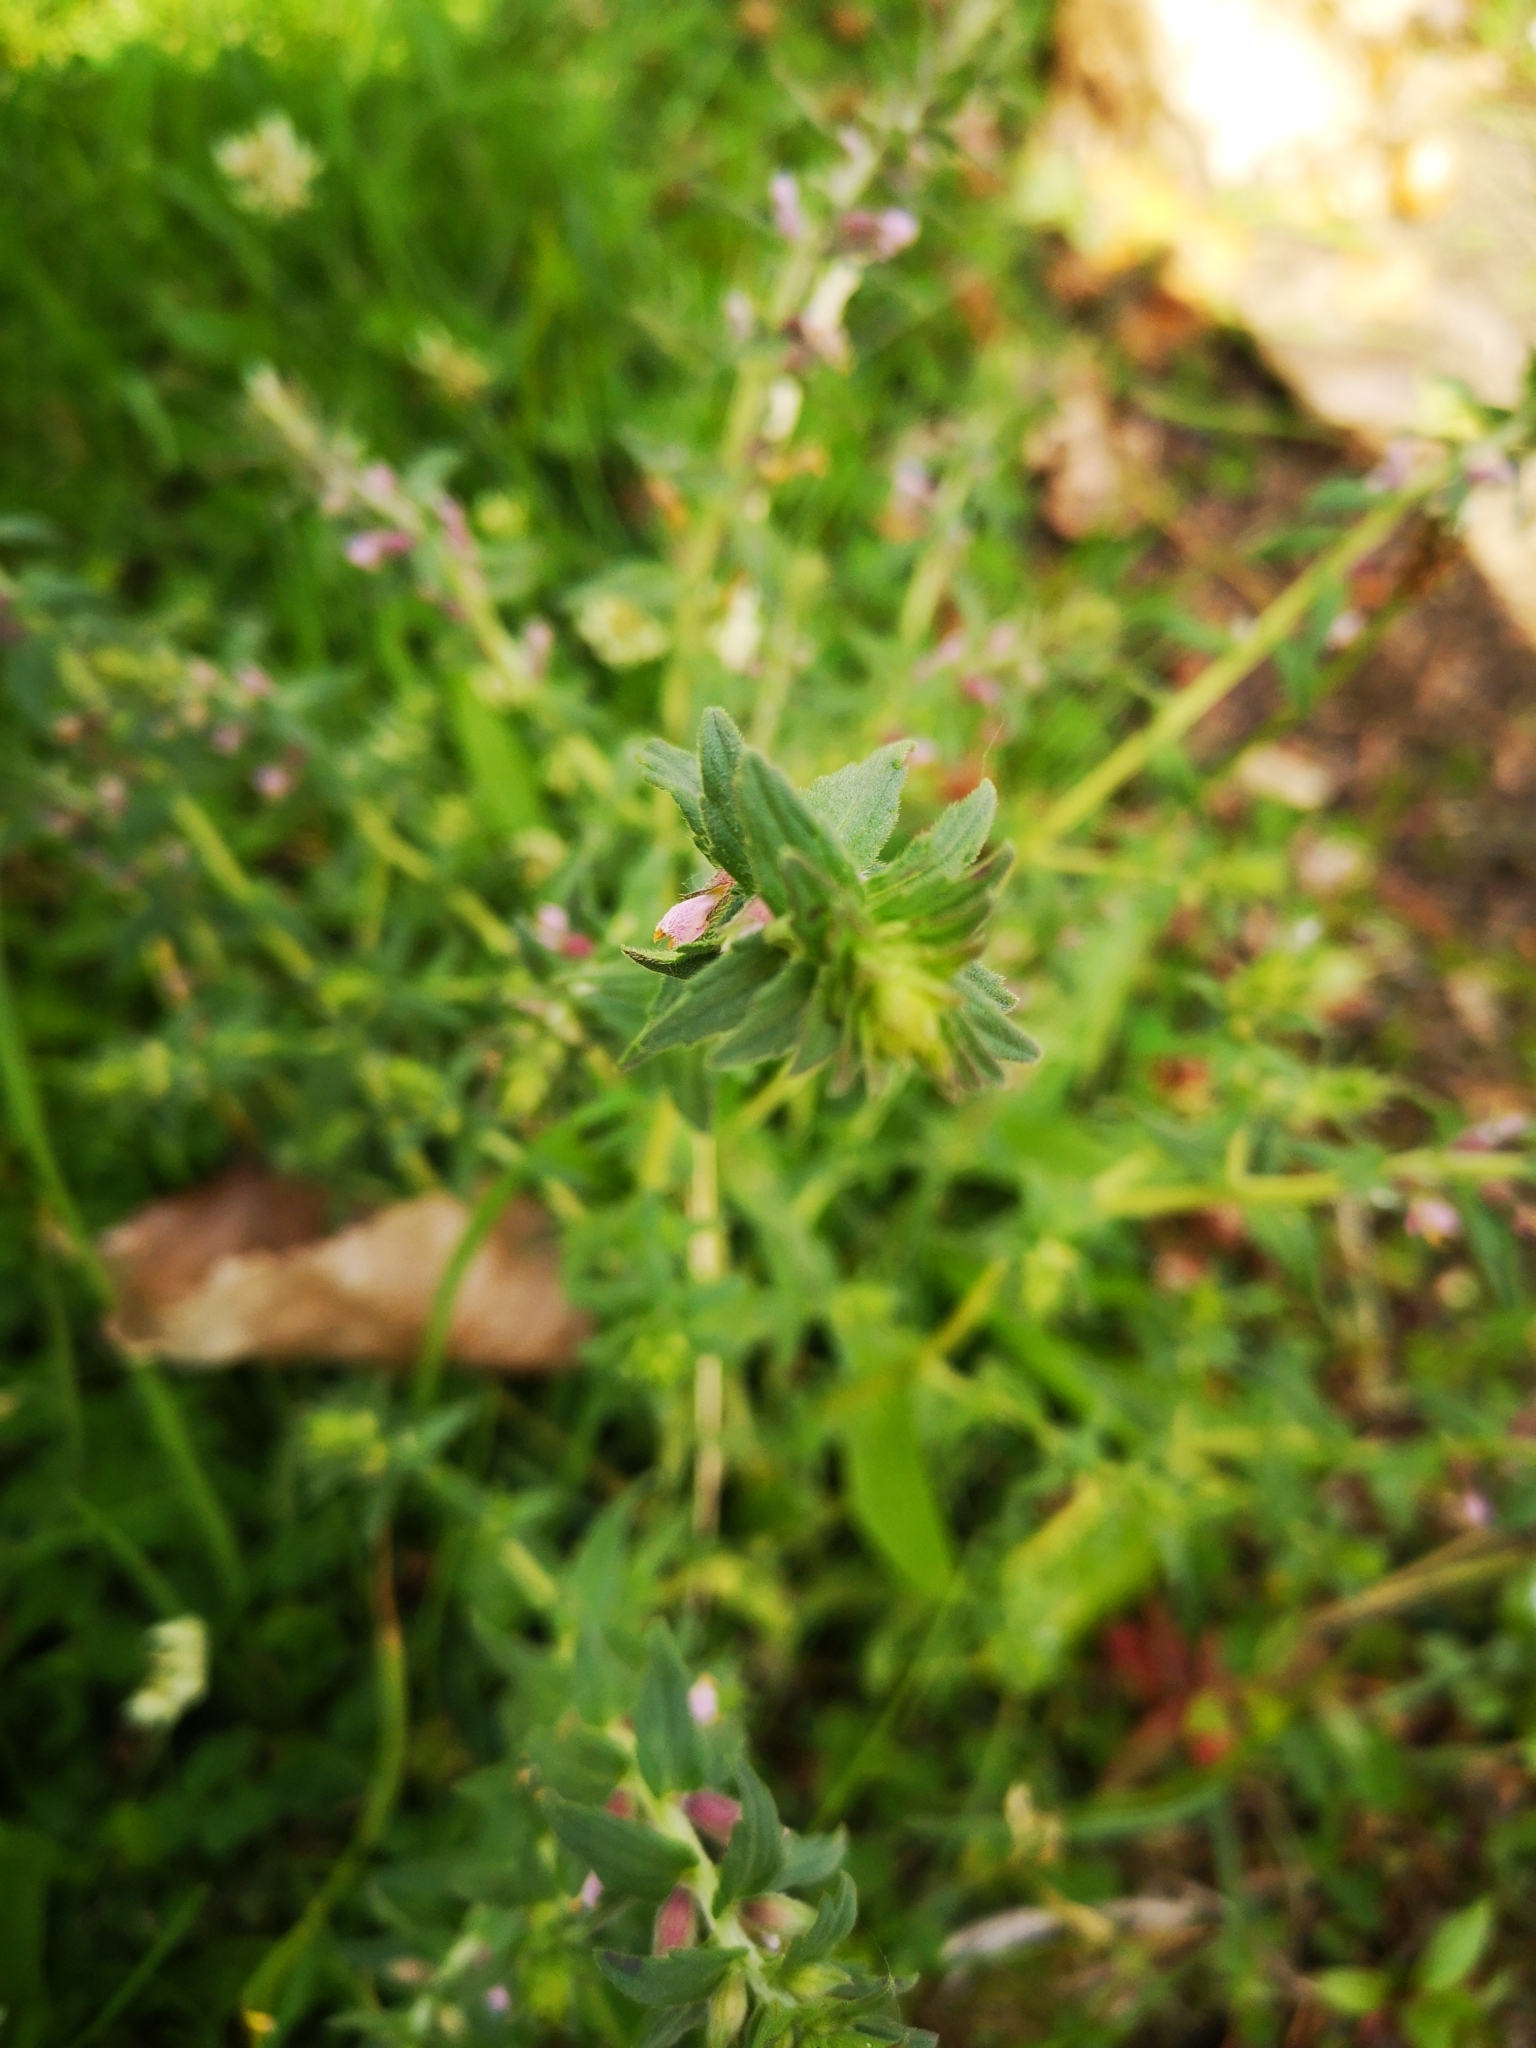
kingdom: Plantae
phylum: Tracheophyta
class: Magnoliopsida
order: Lamiales
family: Orobanchaceae
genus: Odontites
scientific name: Odontites vernus
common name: Red bartsia
